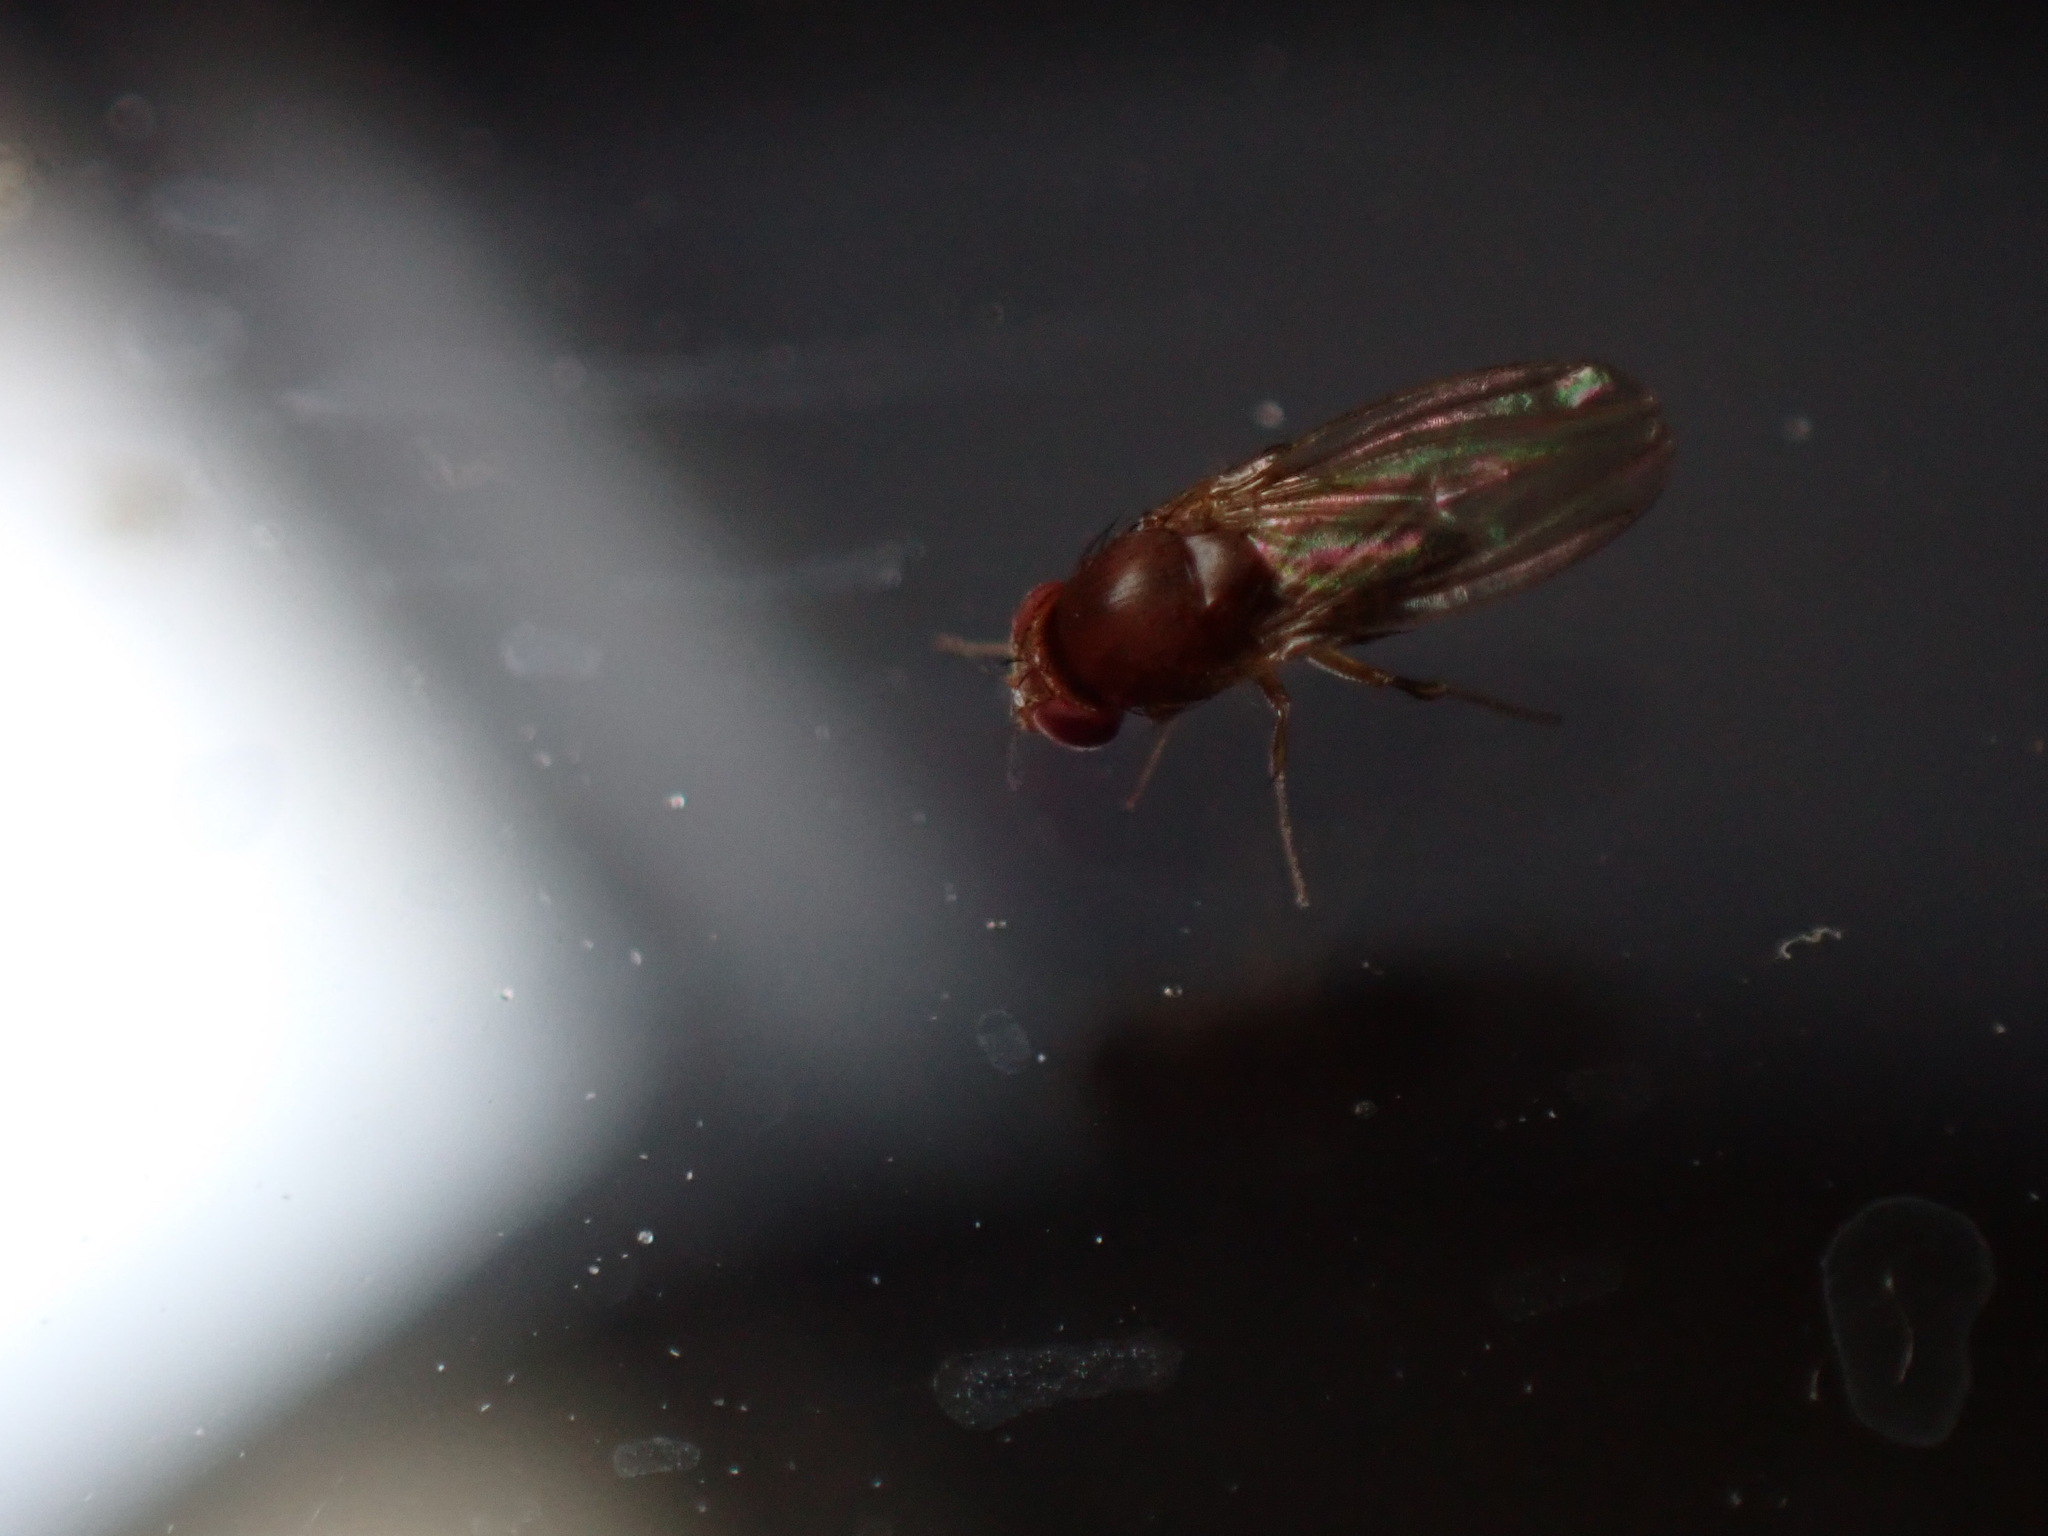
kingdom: Animalia
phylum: Arthropoda
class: Insecta
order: Diptera
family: Drosophilidae
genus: Drosophila
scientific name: Drosophila suzukii
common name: Spotted-wing drosophila
